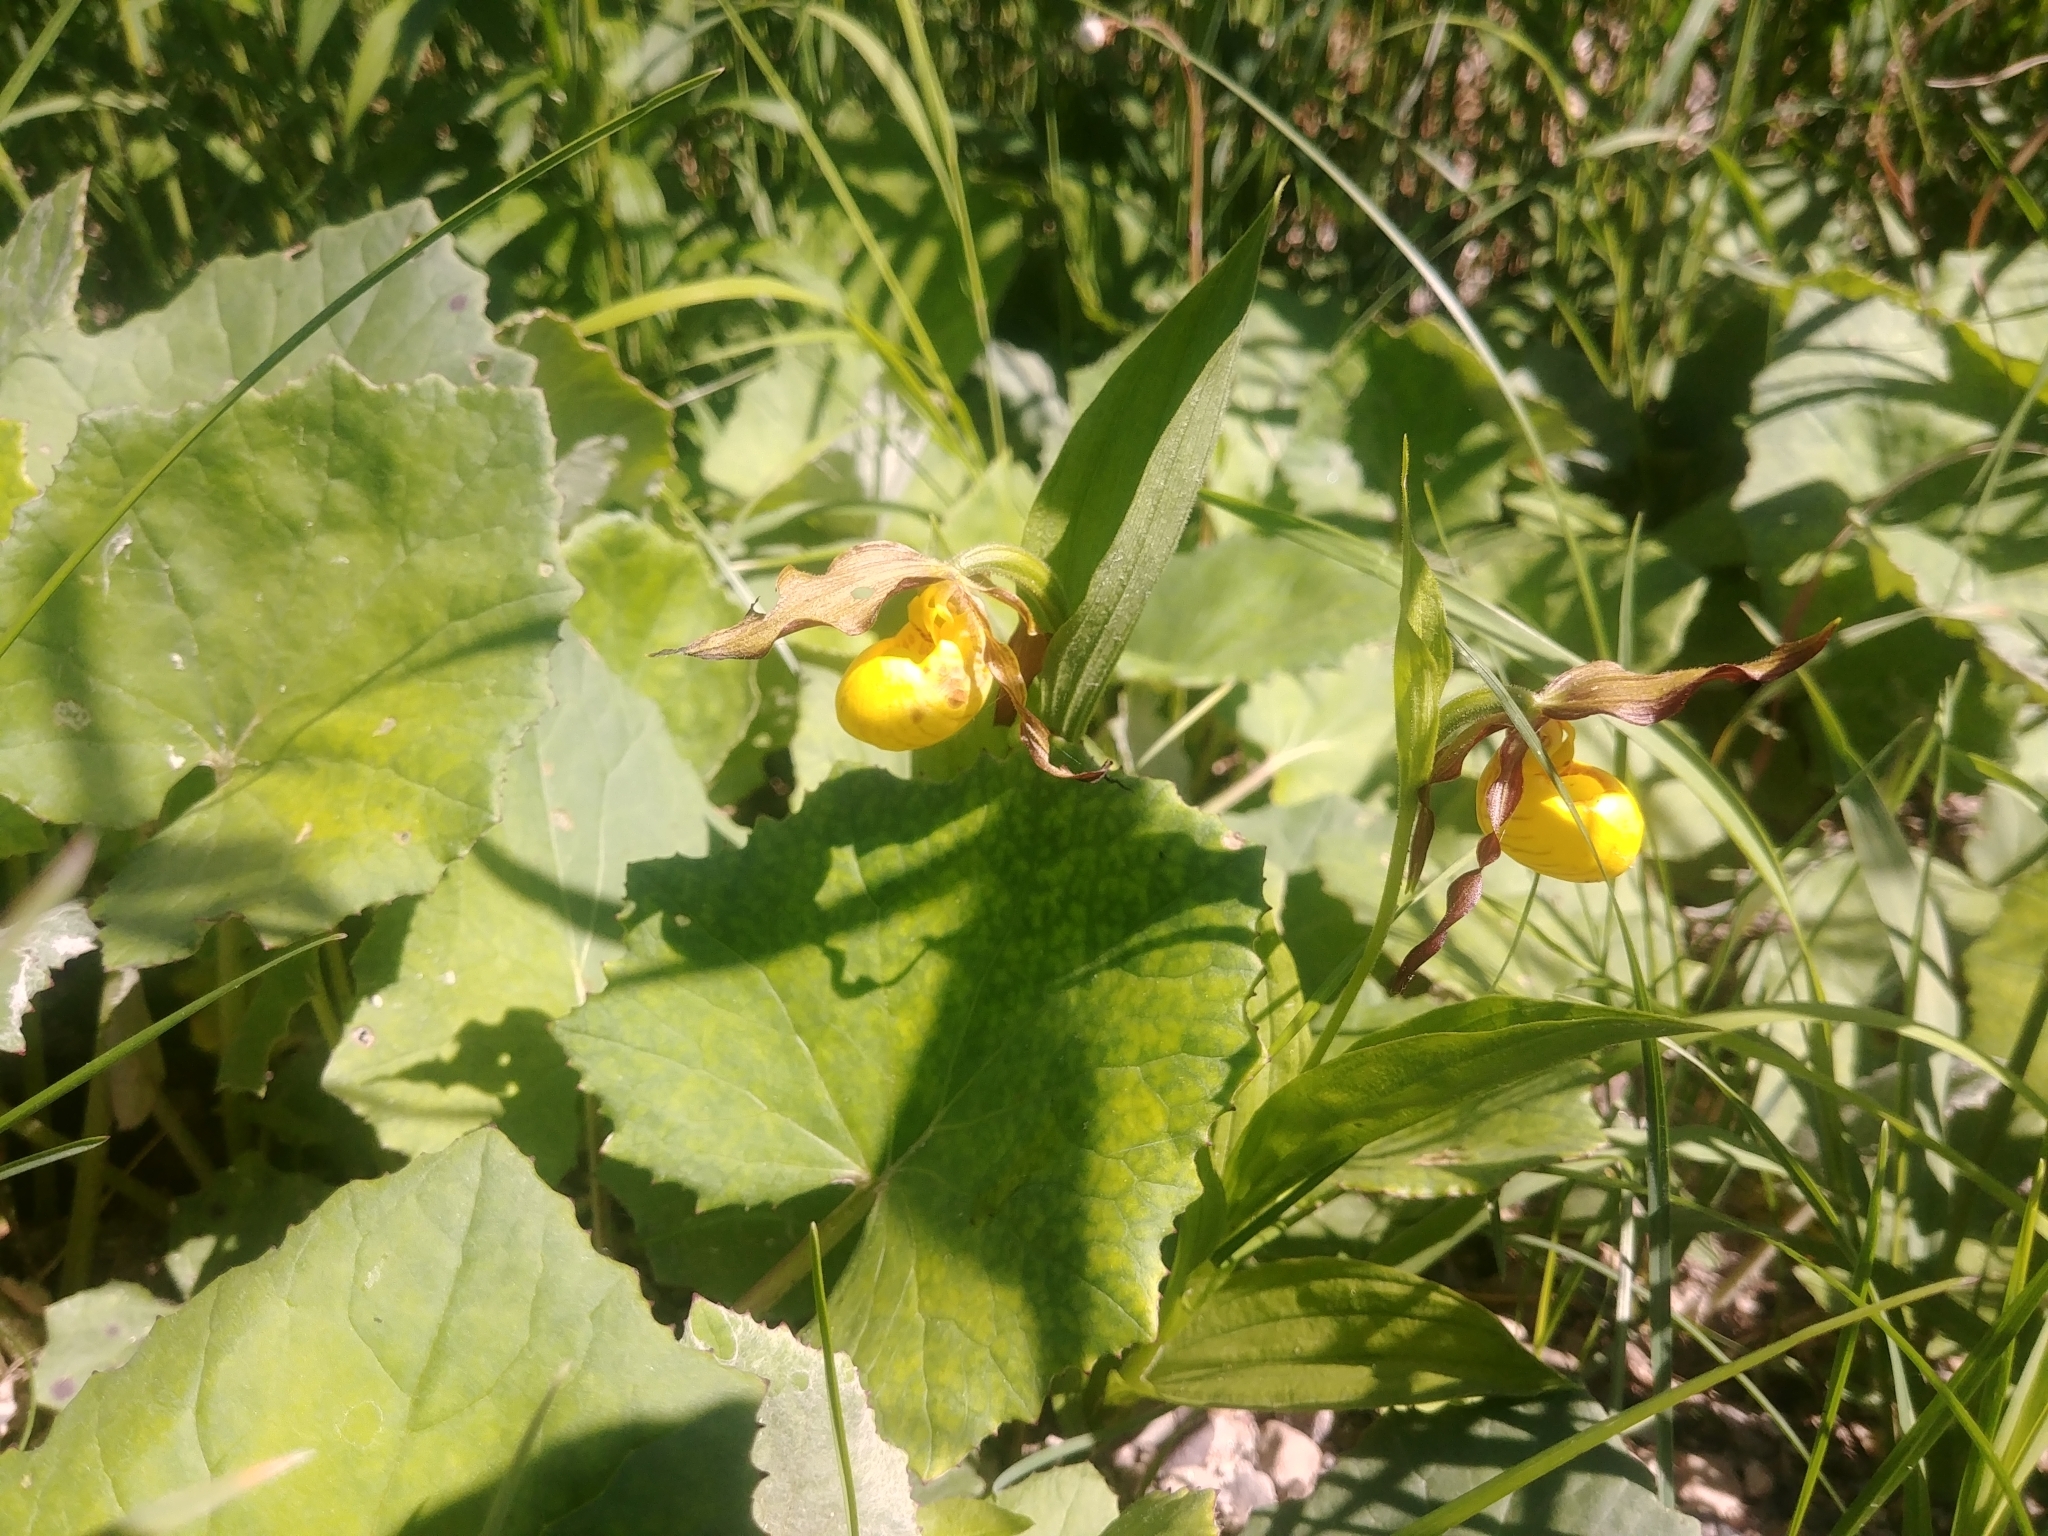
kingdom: Plantae
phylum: Tracheophyta
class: Liliopsida
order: Asparagales
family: Orchidaceae
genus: Cypripedium
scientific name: Cypripedium parviflorum
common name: American yellow lady's-slipper
